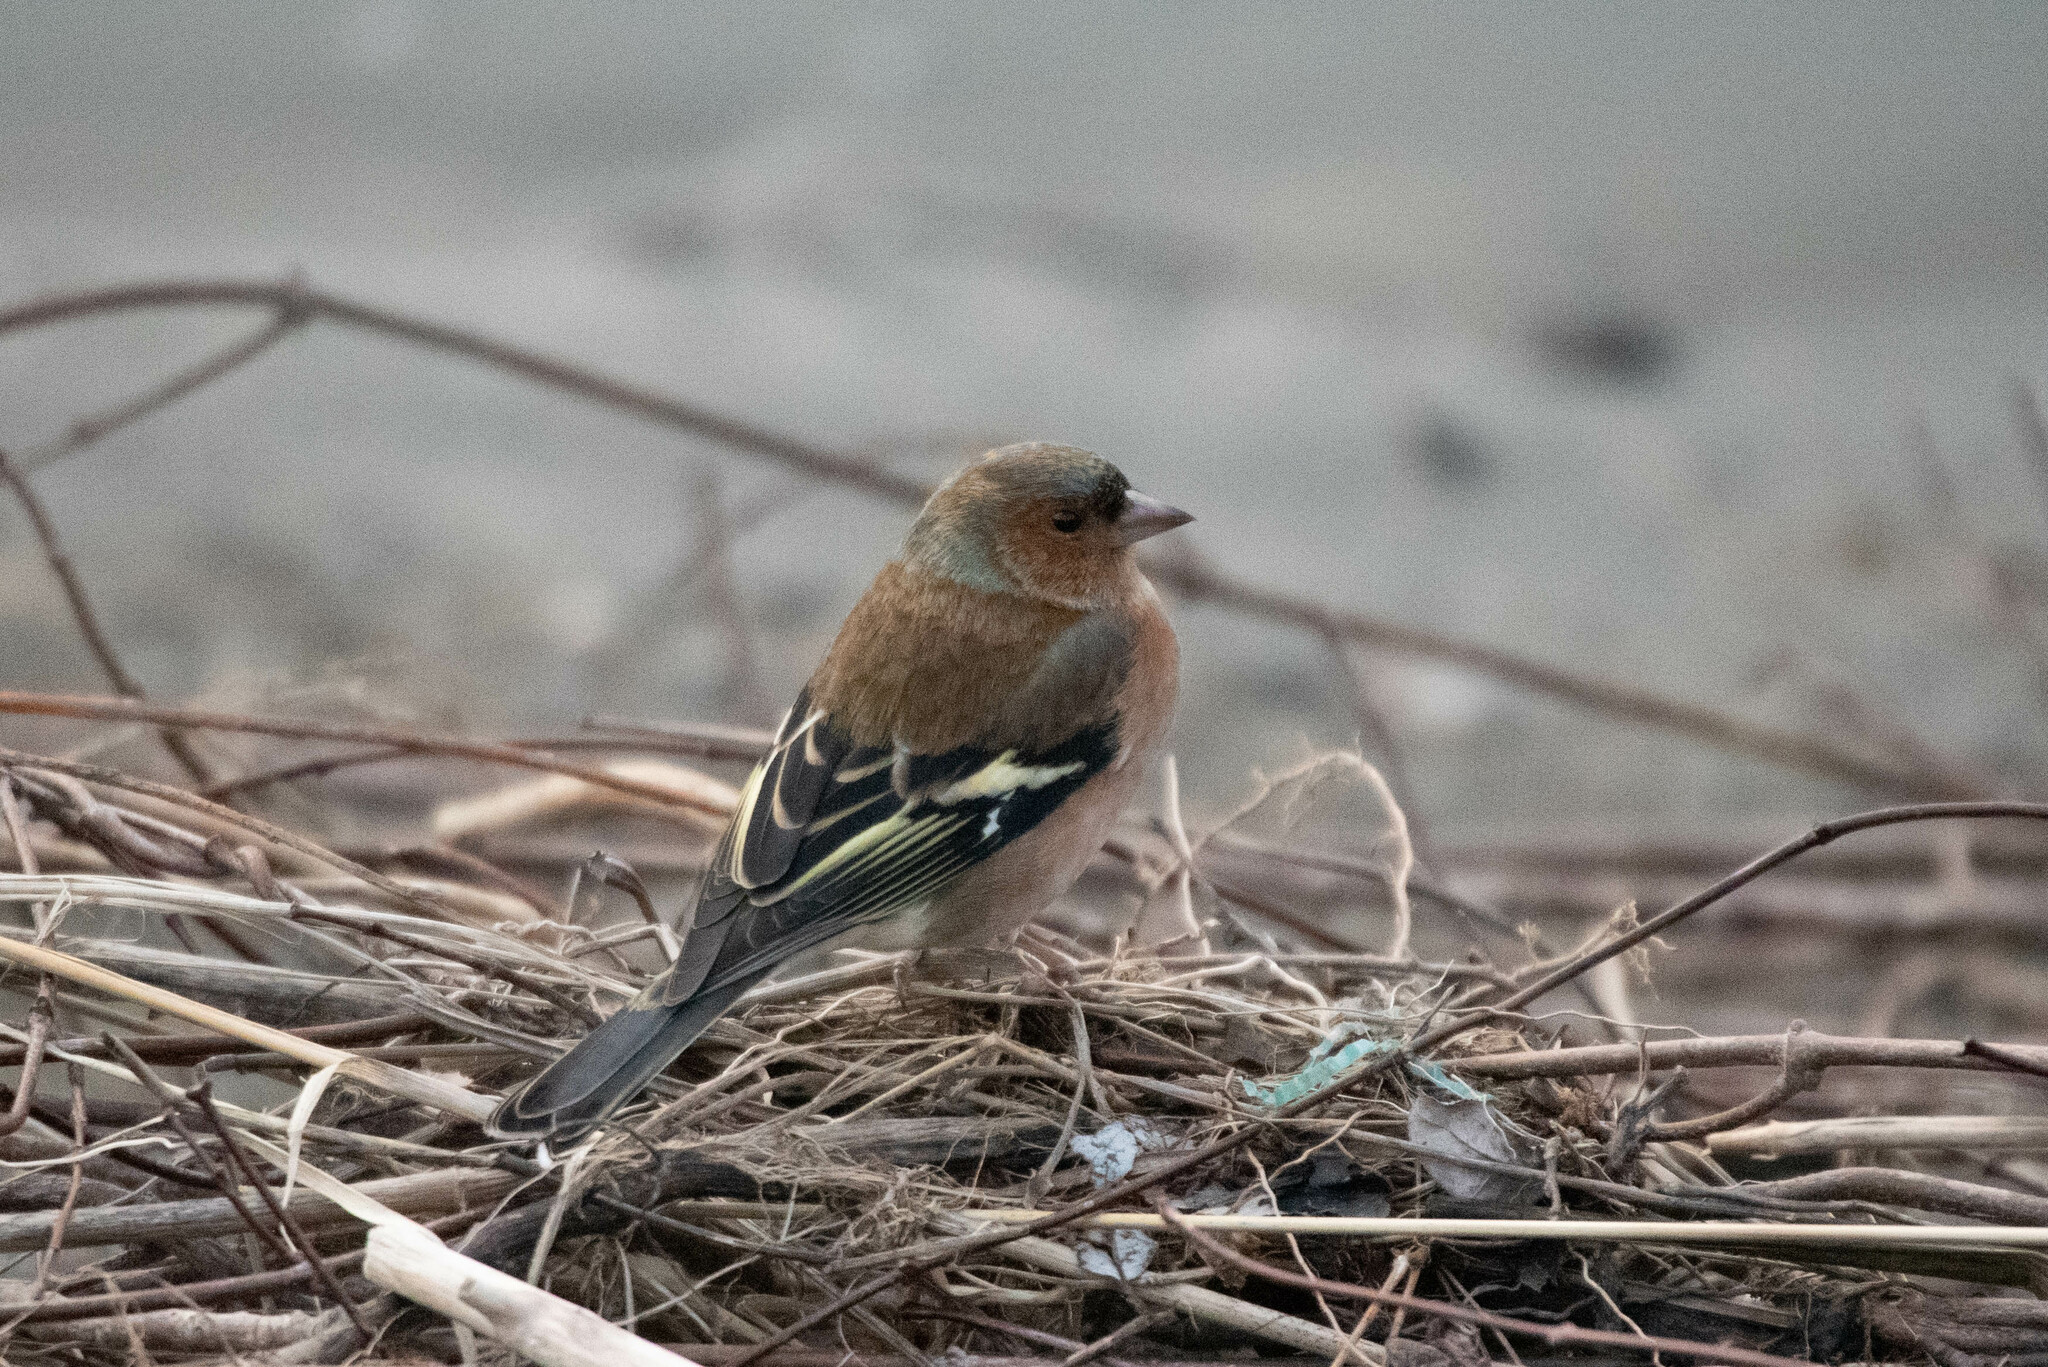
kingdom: Animalia
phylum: Chordata
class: Aves
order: Passeriformes
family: Fringillidae
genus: Fringilla
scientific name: Fringilla coelebs
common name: Common chaffinch
